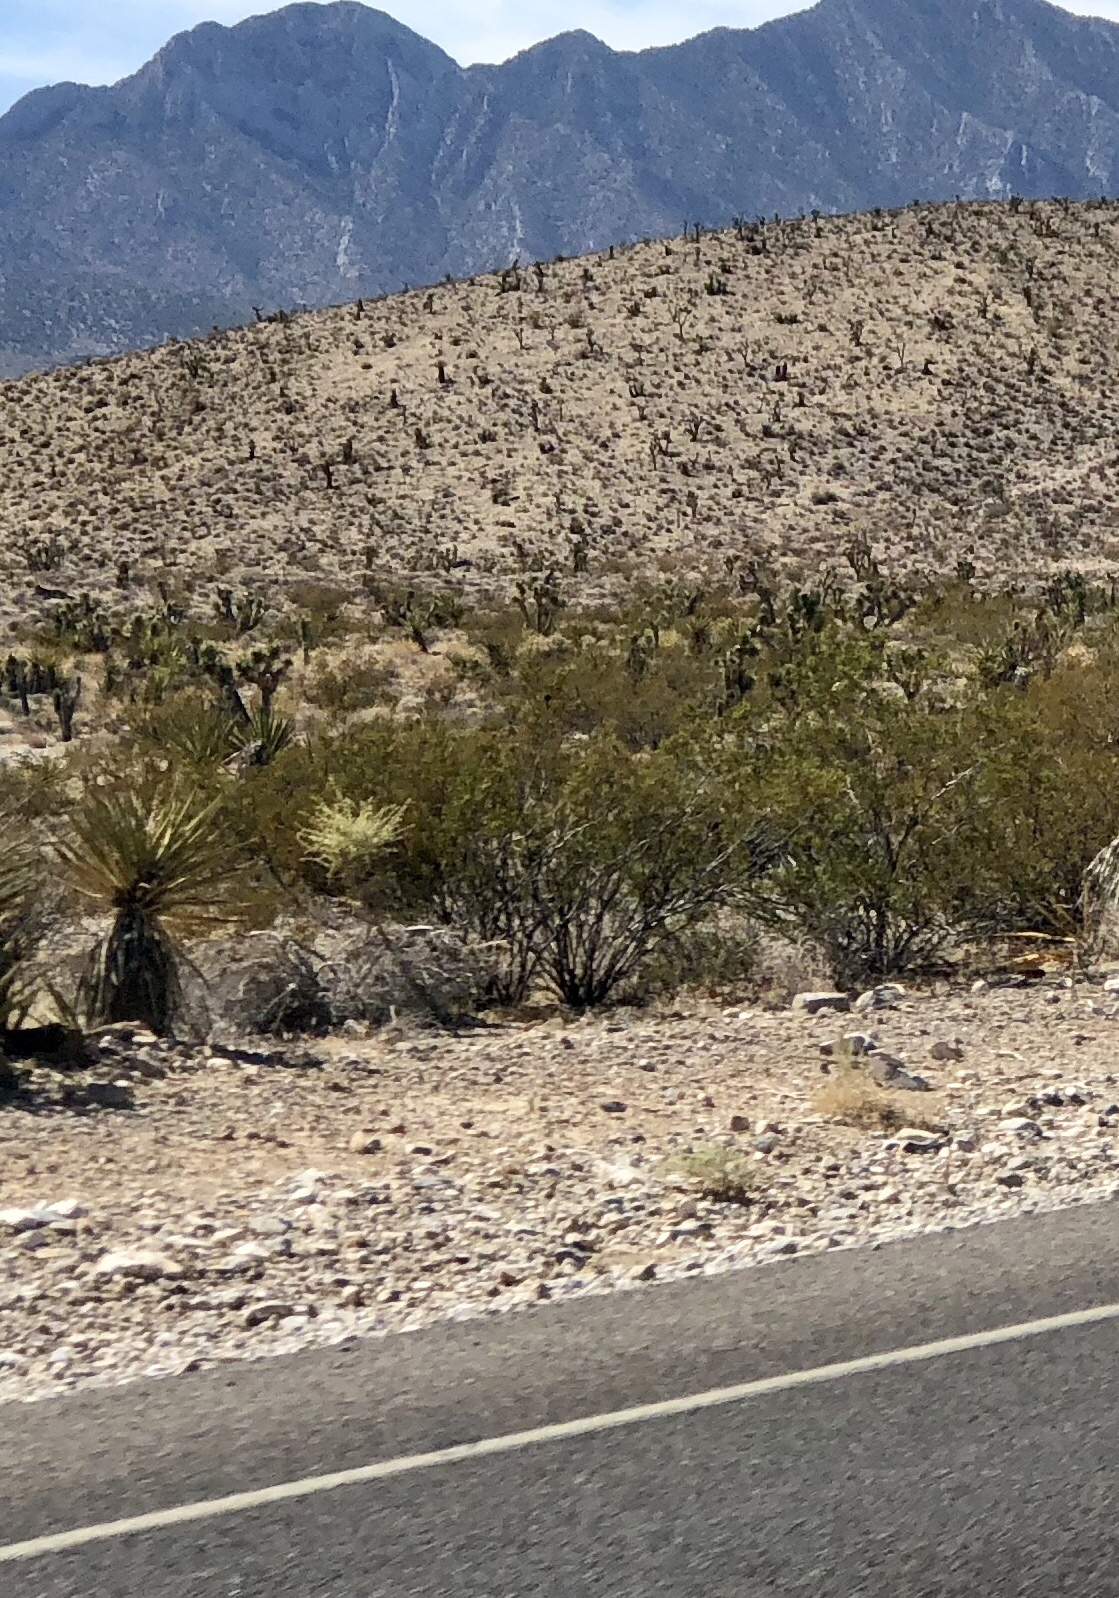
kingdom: Plantae
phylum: Tracheophyta
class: Magnoliopsida
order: Zygophyllales
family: Zygophyllaceae
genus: Larrea
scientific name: Larrea tridentata
